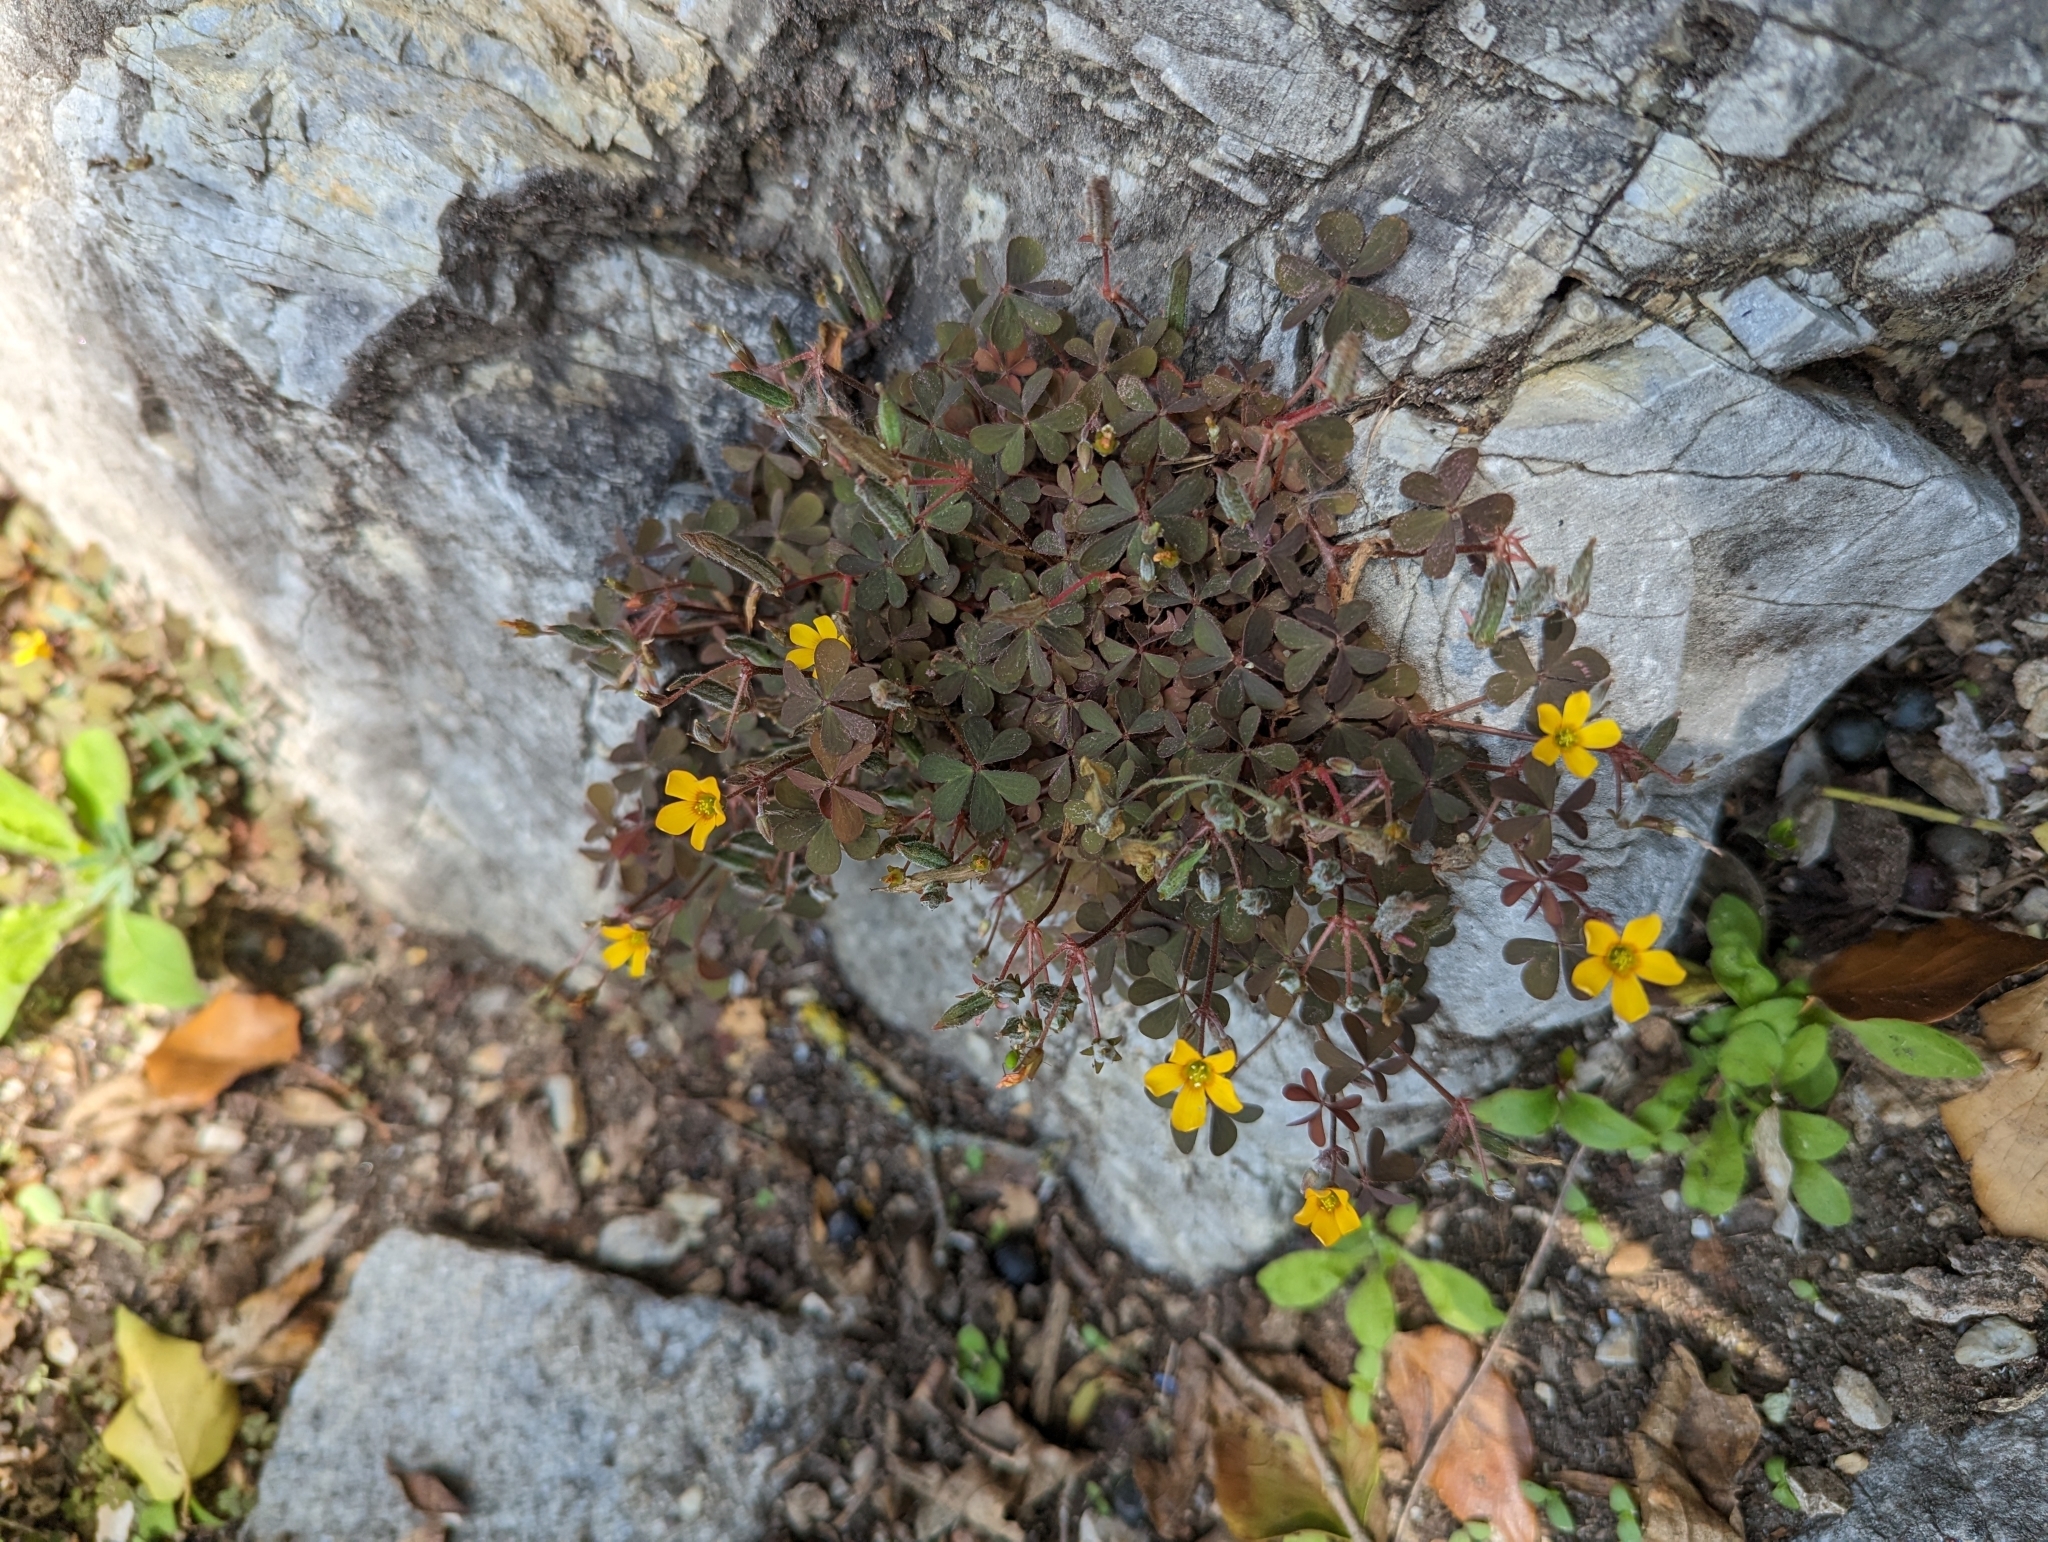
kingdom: Plantae
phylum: Tracheophyta
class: Magnoliopsida
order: Oxalidales
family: Oxalidaceae
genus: Oxalis
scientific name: Oxalis corniculata
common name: Procumbent yellow-sorrel
